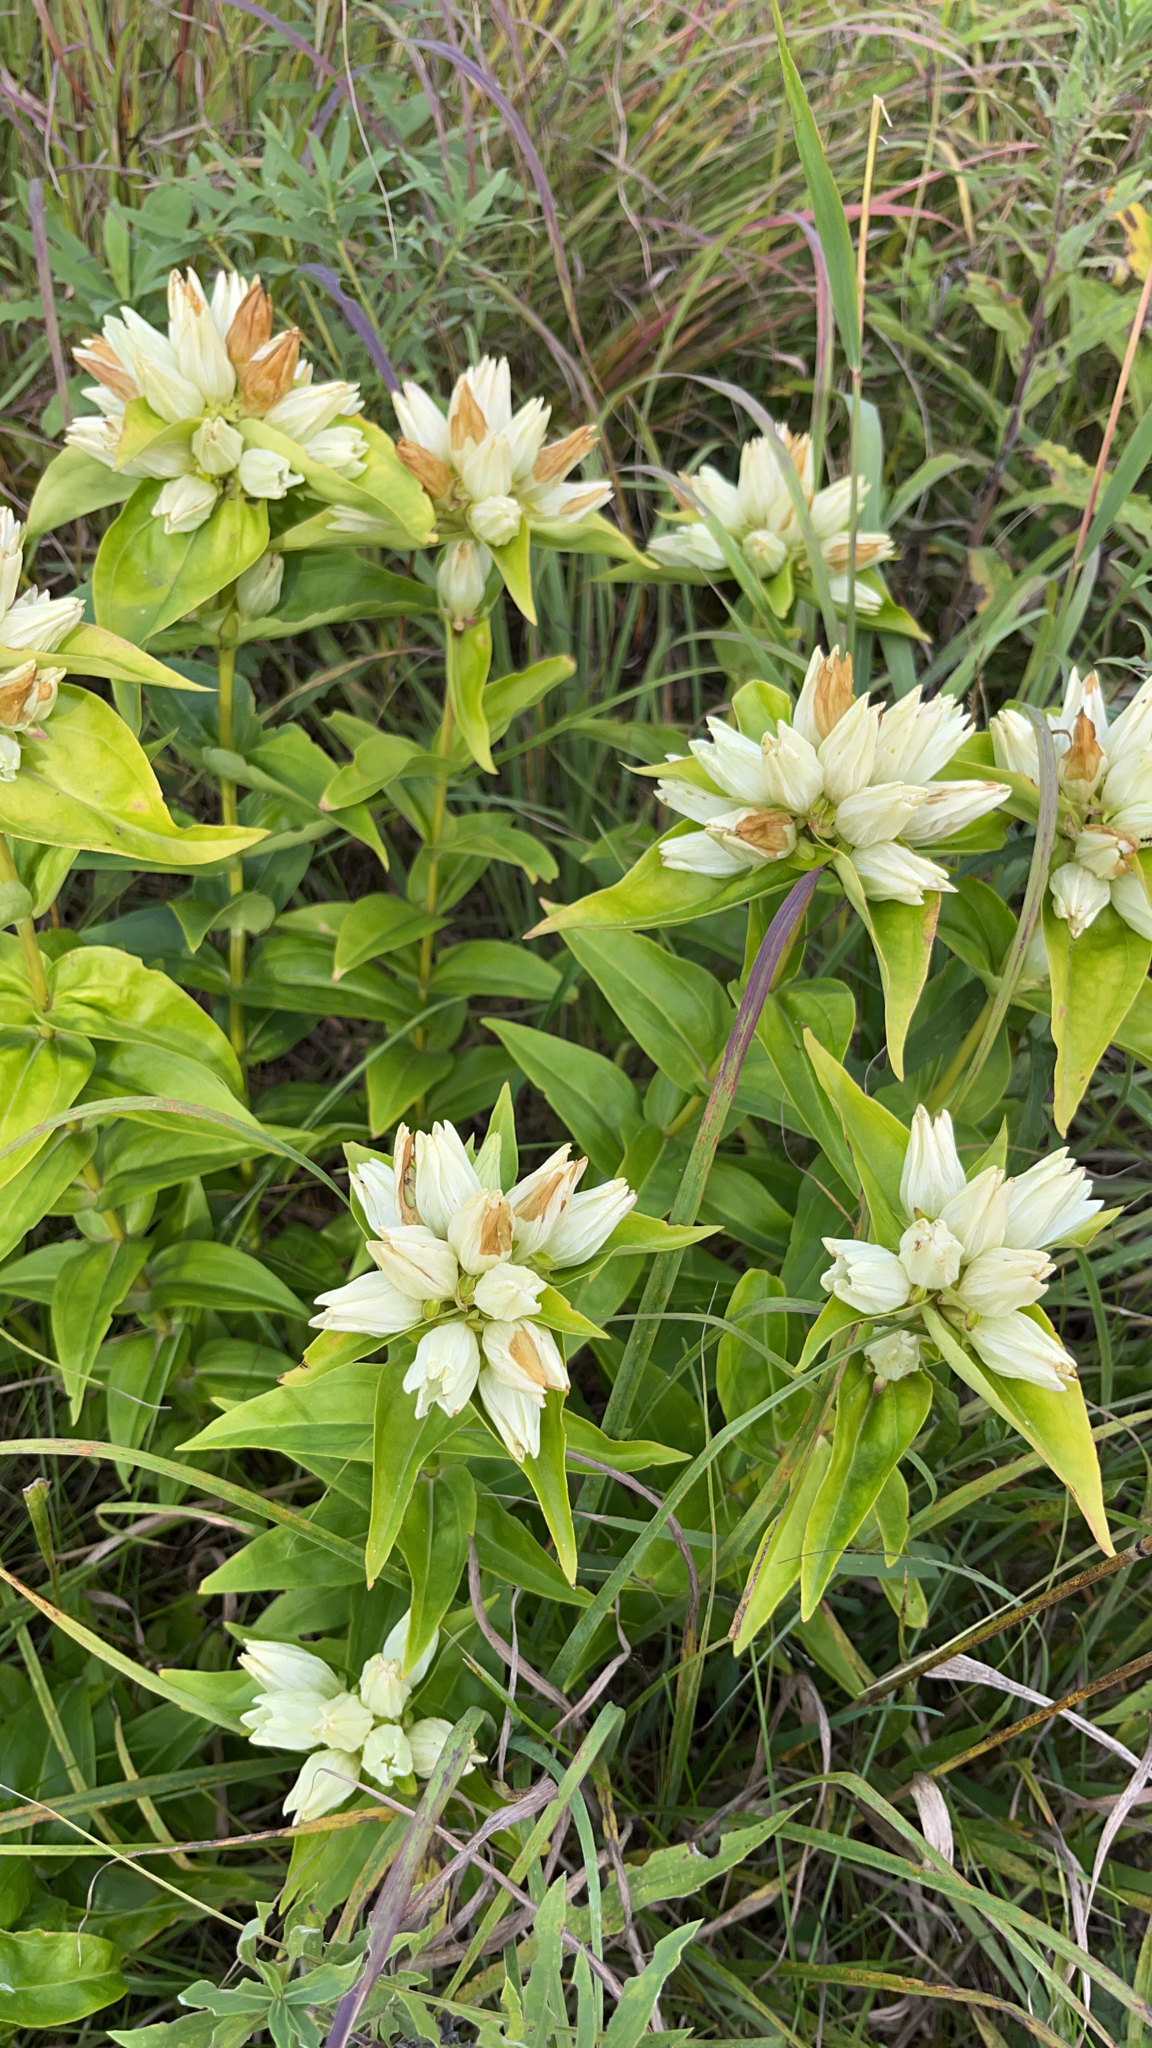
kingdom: Plantae
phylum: Tracheophyta
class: Magnoliopsida
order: Gentianales
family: Gentianaceae
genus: Gentiana
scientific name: Gentiana alba
